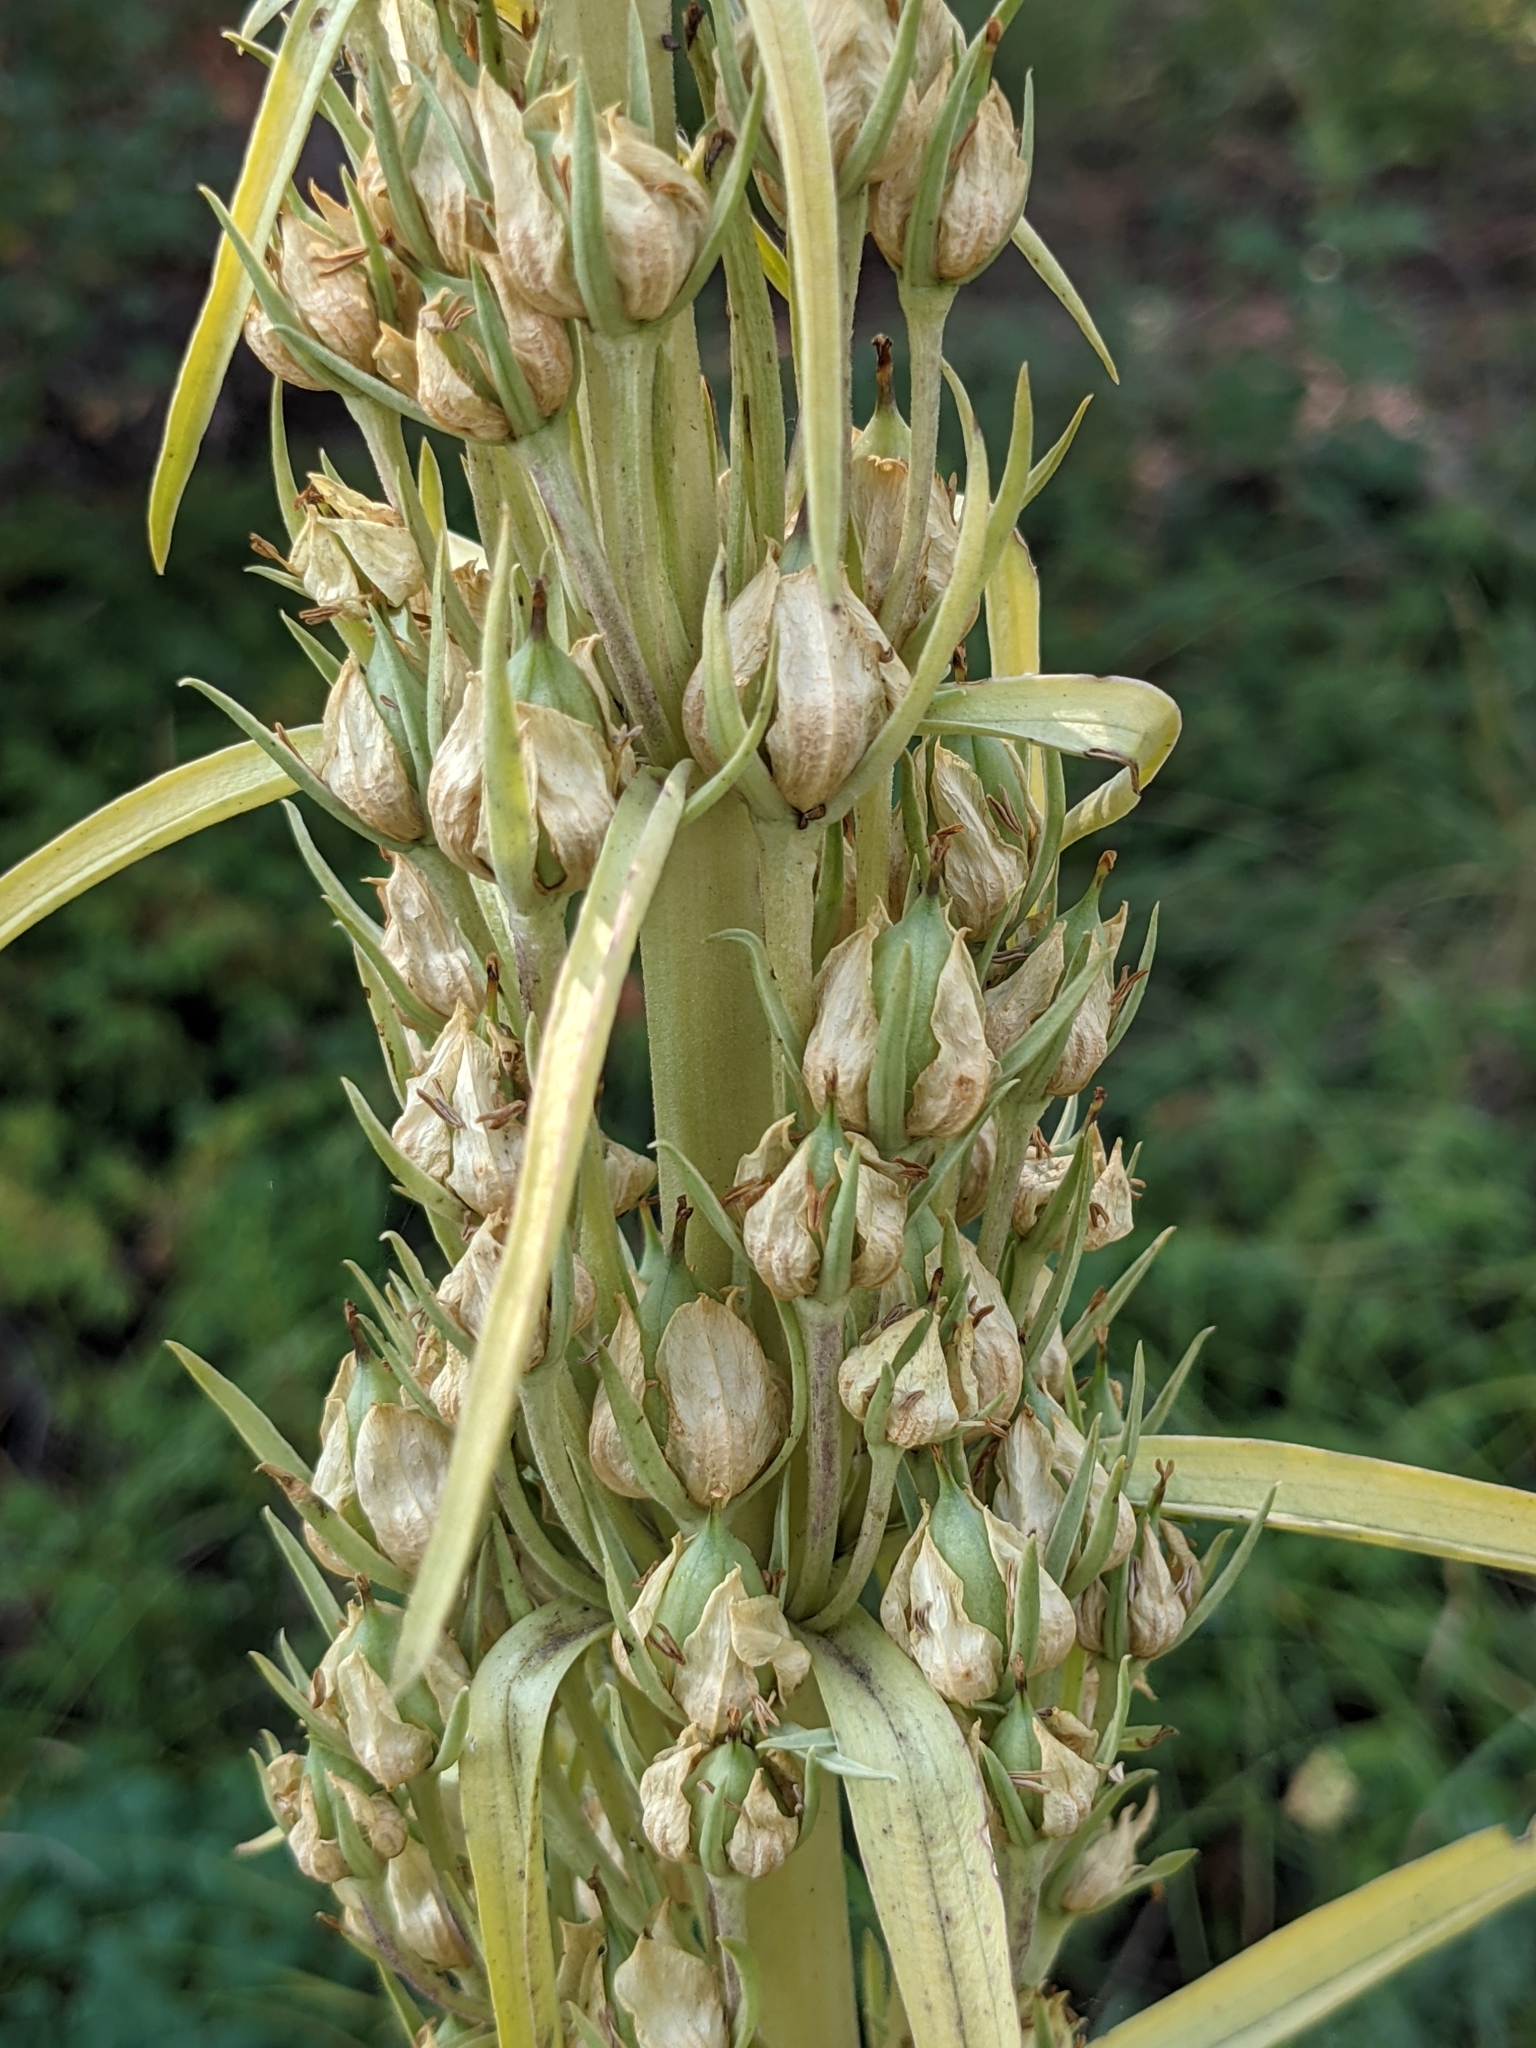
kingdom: Plantae
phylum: Tracheophyta
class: Magnoliopsida
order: Gentianales
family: Gentianaceae
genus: Frasera
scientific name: Frasera speciosa
